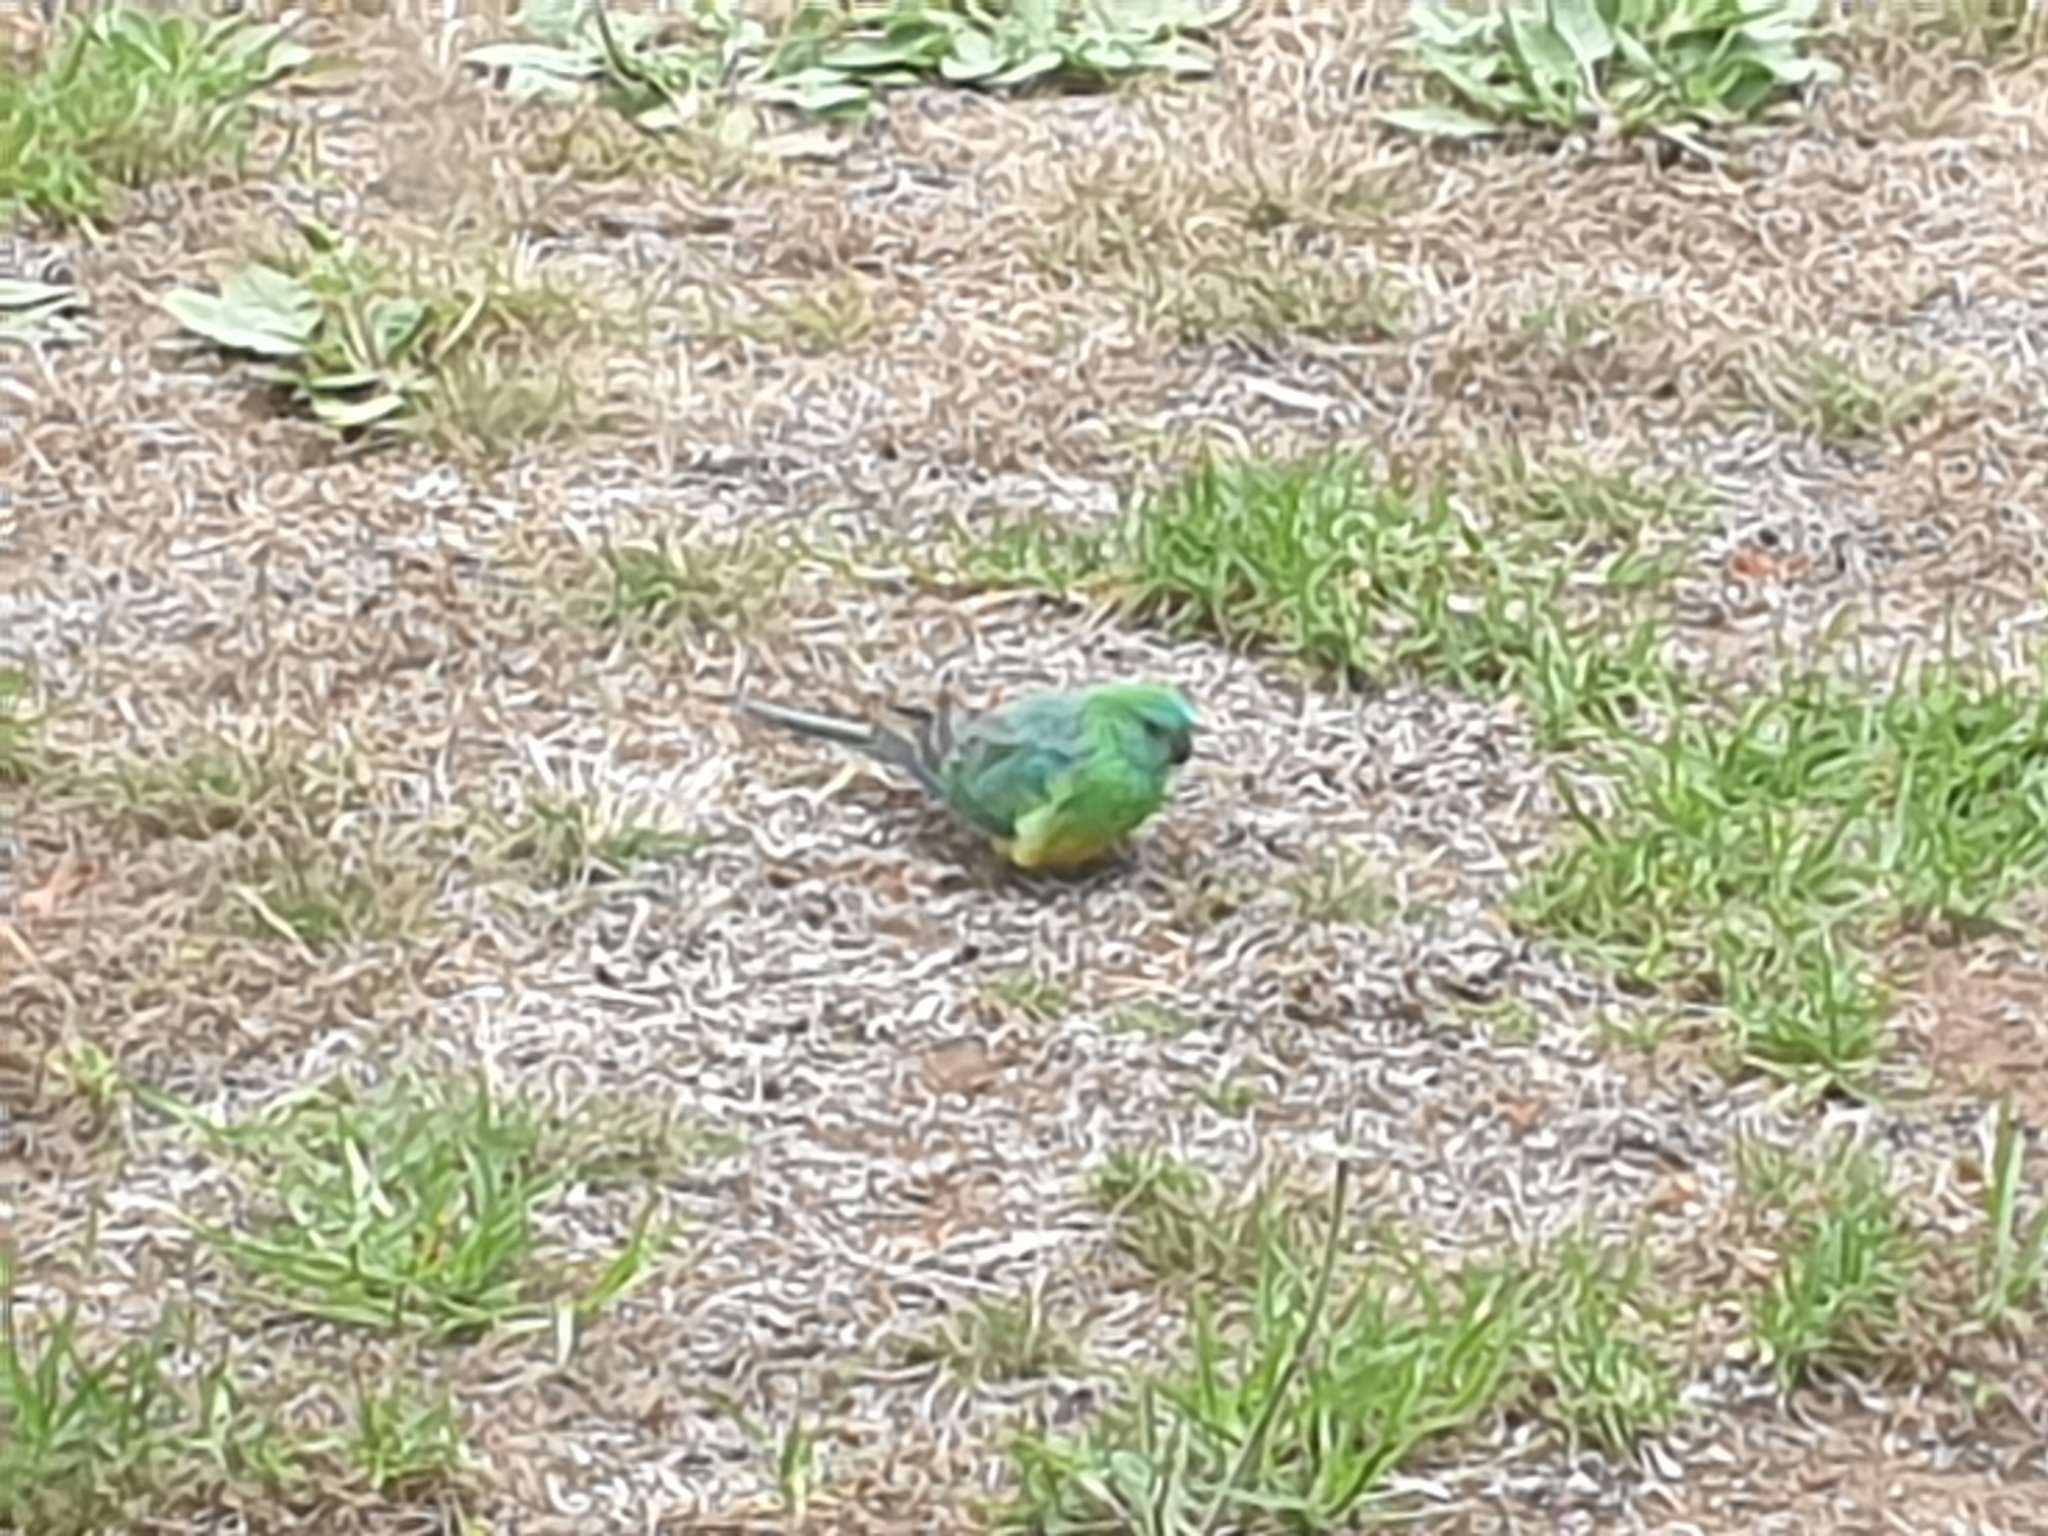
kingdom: Animalia
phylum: Chordata
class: Aves
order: Psittaciformes
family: Psittacidae
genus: Psephotus
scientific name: Psephotus haematonotus
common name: Red-rumped parrot
